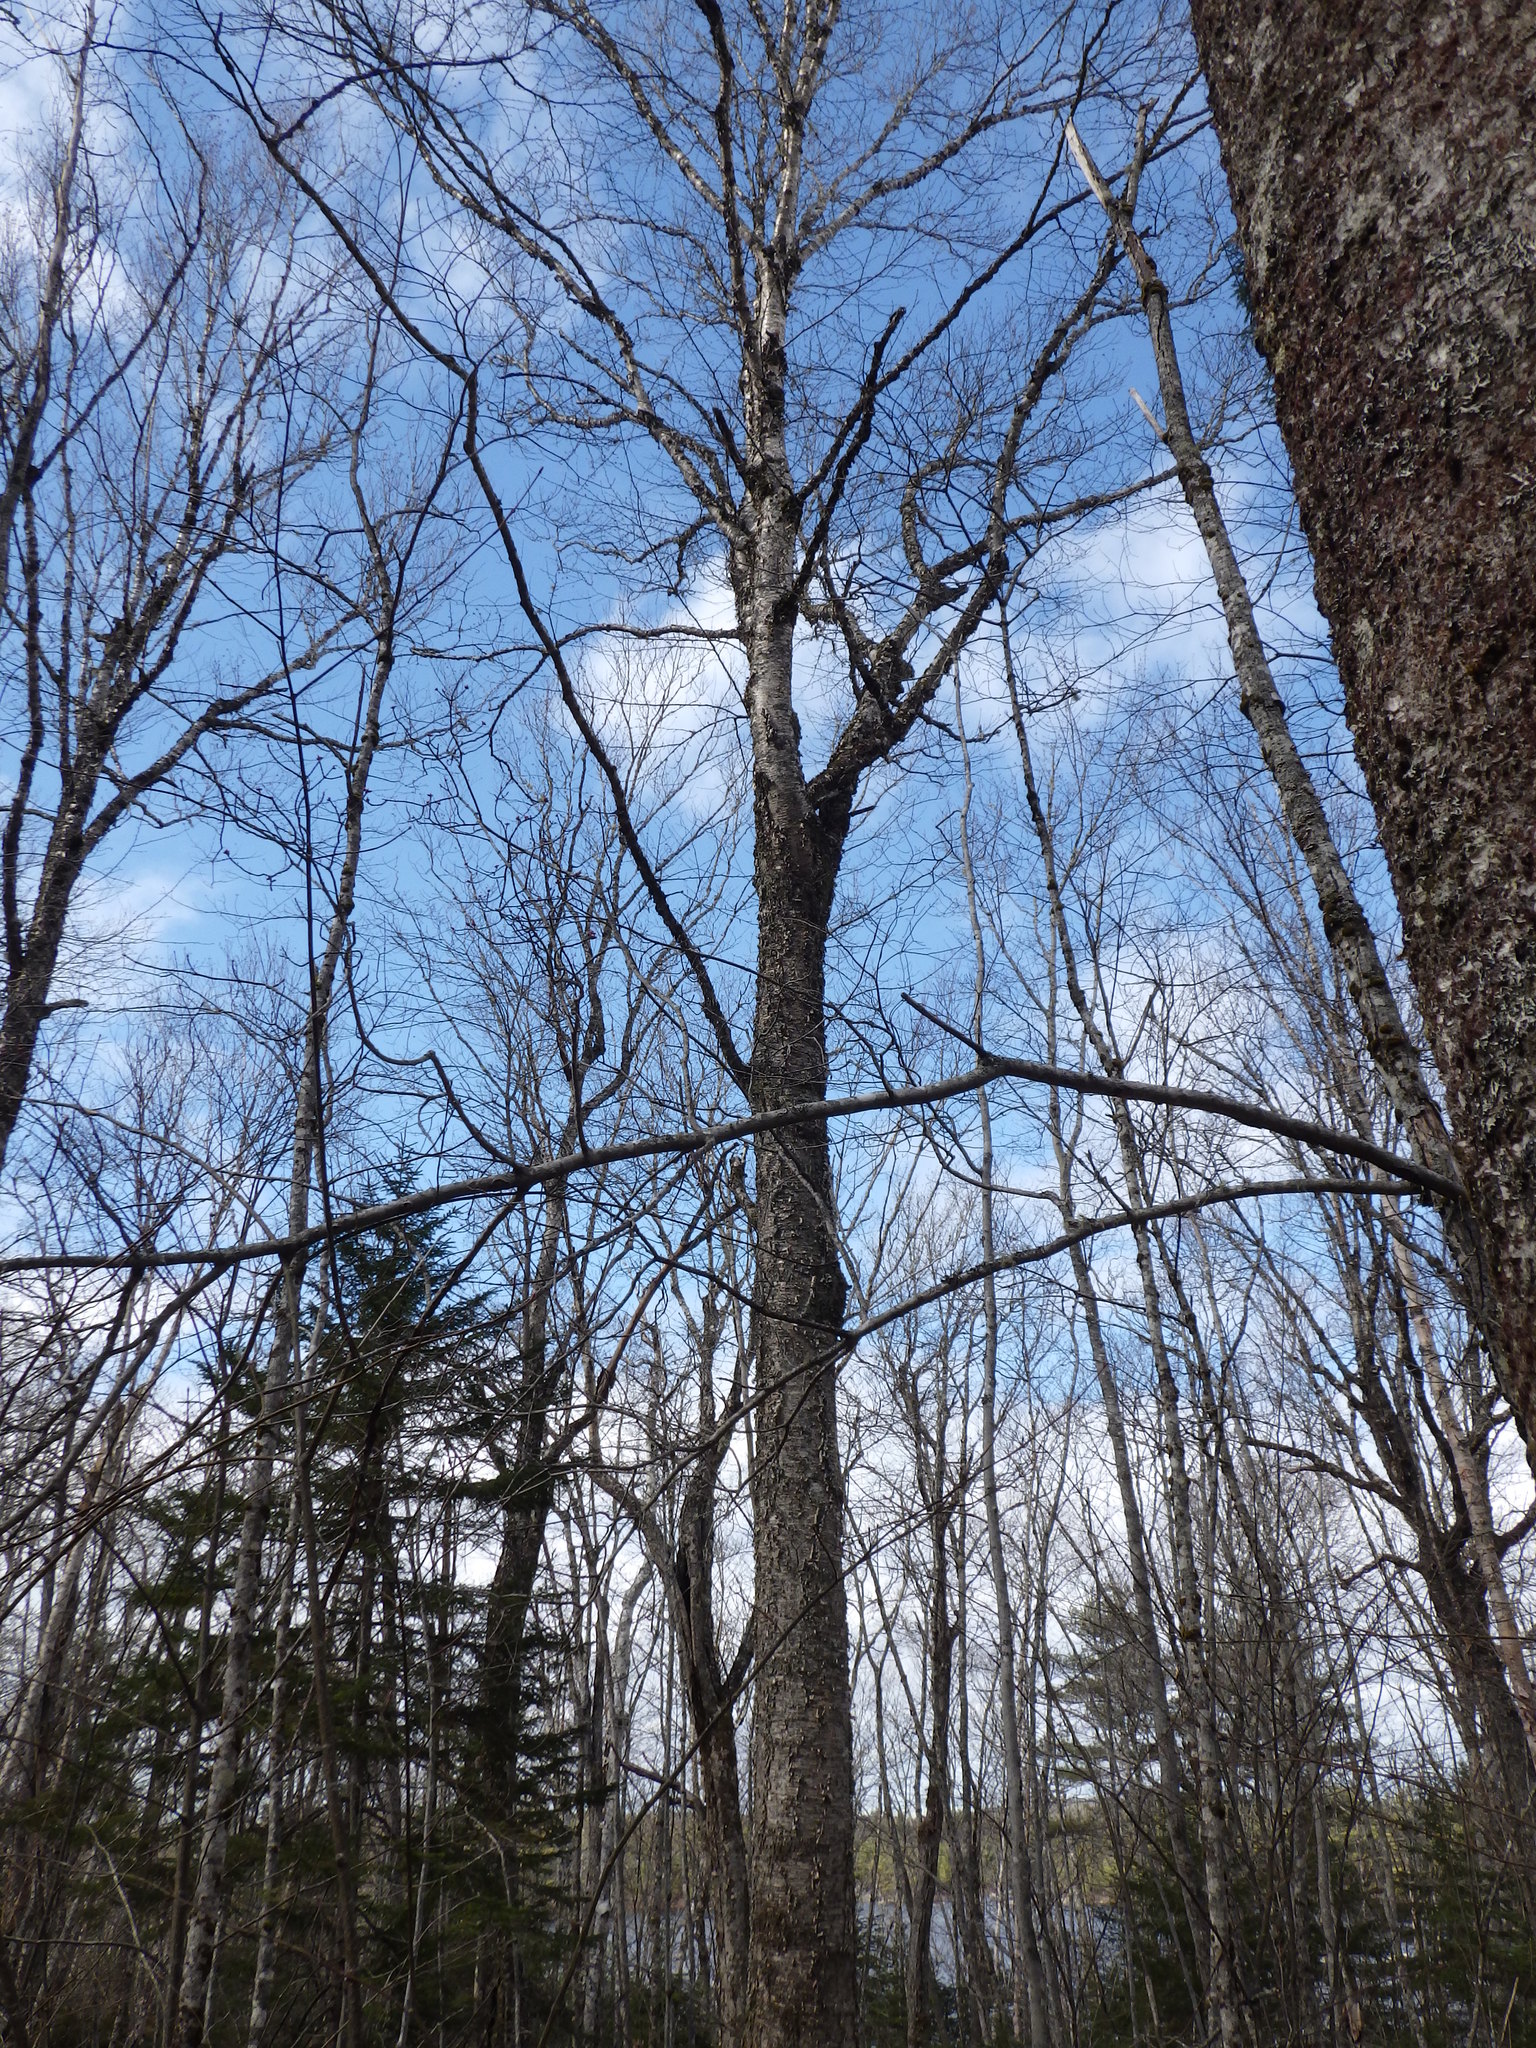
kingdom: Plantae
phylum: Tracheophyta
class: Magnoliopsida
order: Fagales
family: Betulaceae
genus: Betula
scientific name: Betula alleghaniensis
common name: Yellow birch
